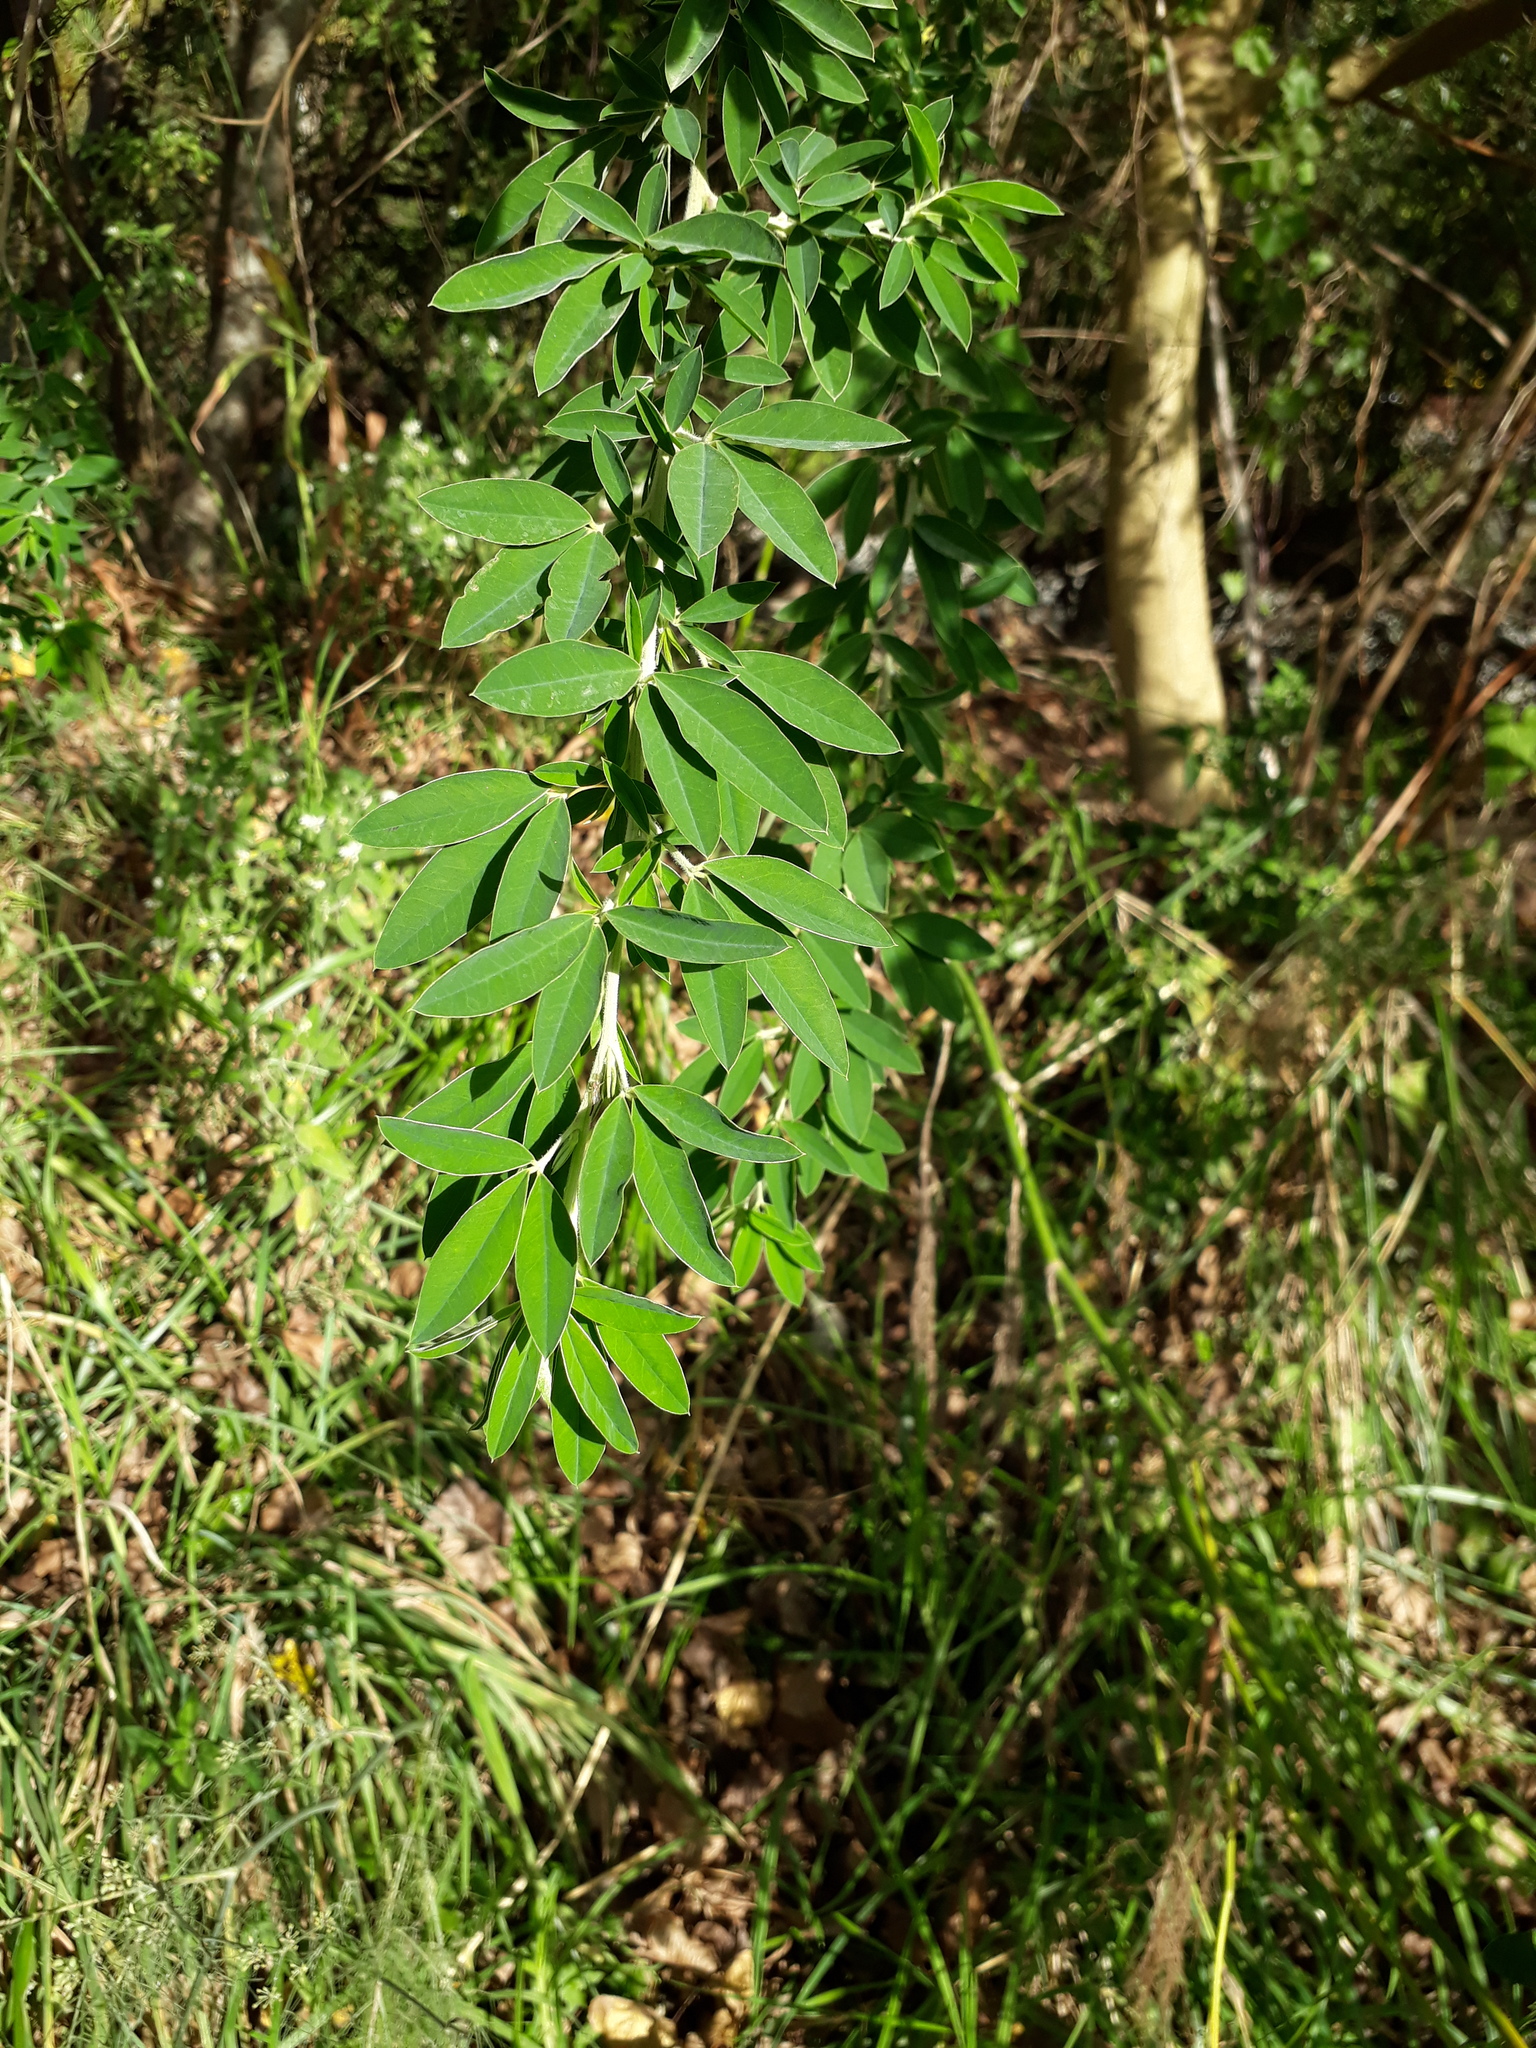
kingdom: Plantae
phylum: Tracheophyta
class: Magnoliopsida
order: Fabales
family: Fabaceae
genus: Chamaecytisus
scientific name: Chamaecytisus prolifer
